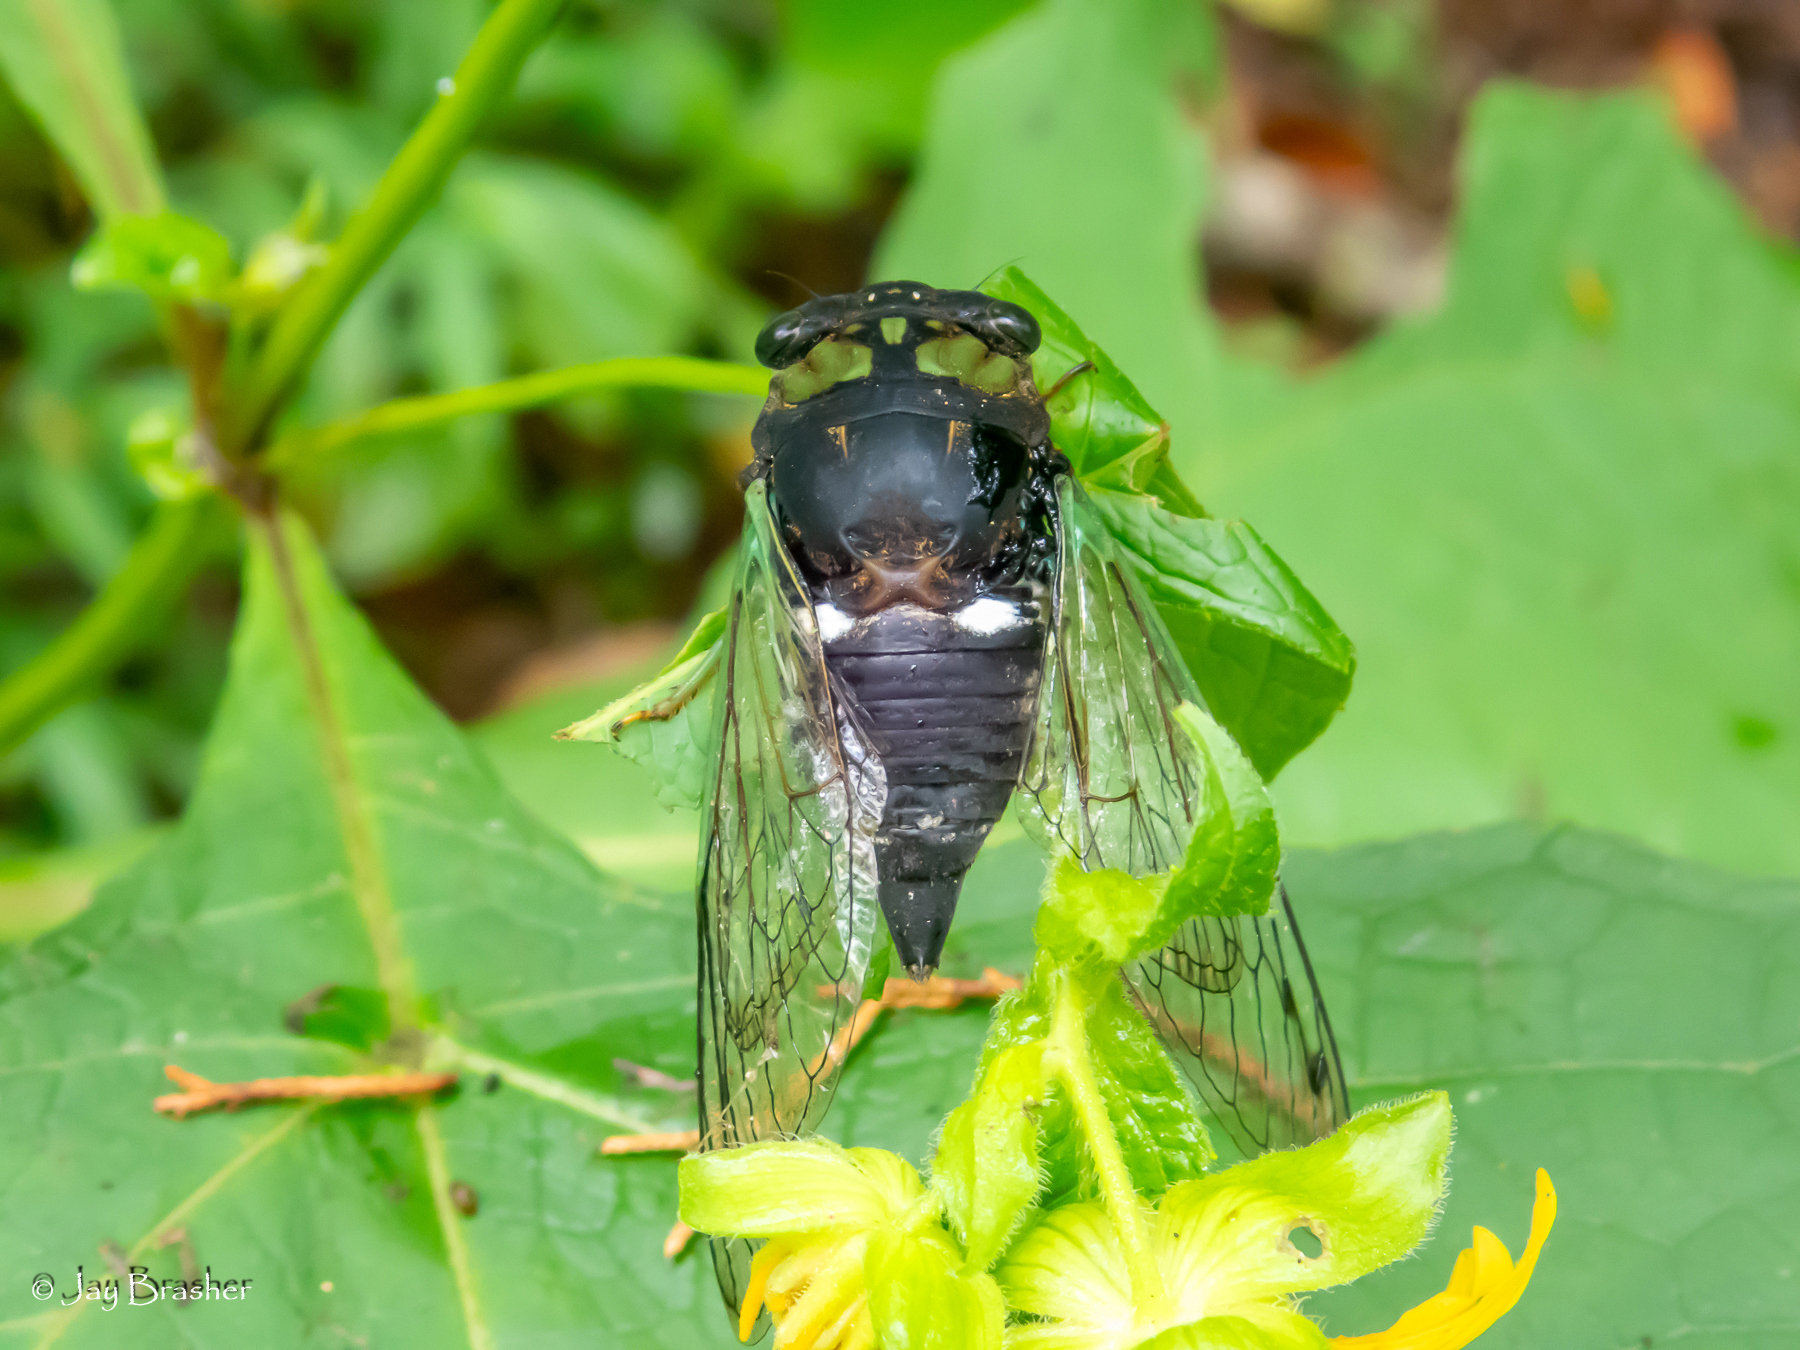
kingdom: Animalia
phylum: Arthropoda
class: Insecta
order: Hemiptera
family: Cicadidae
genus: Neotibicen
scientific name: Neotibicen tibicen
